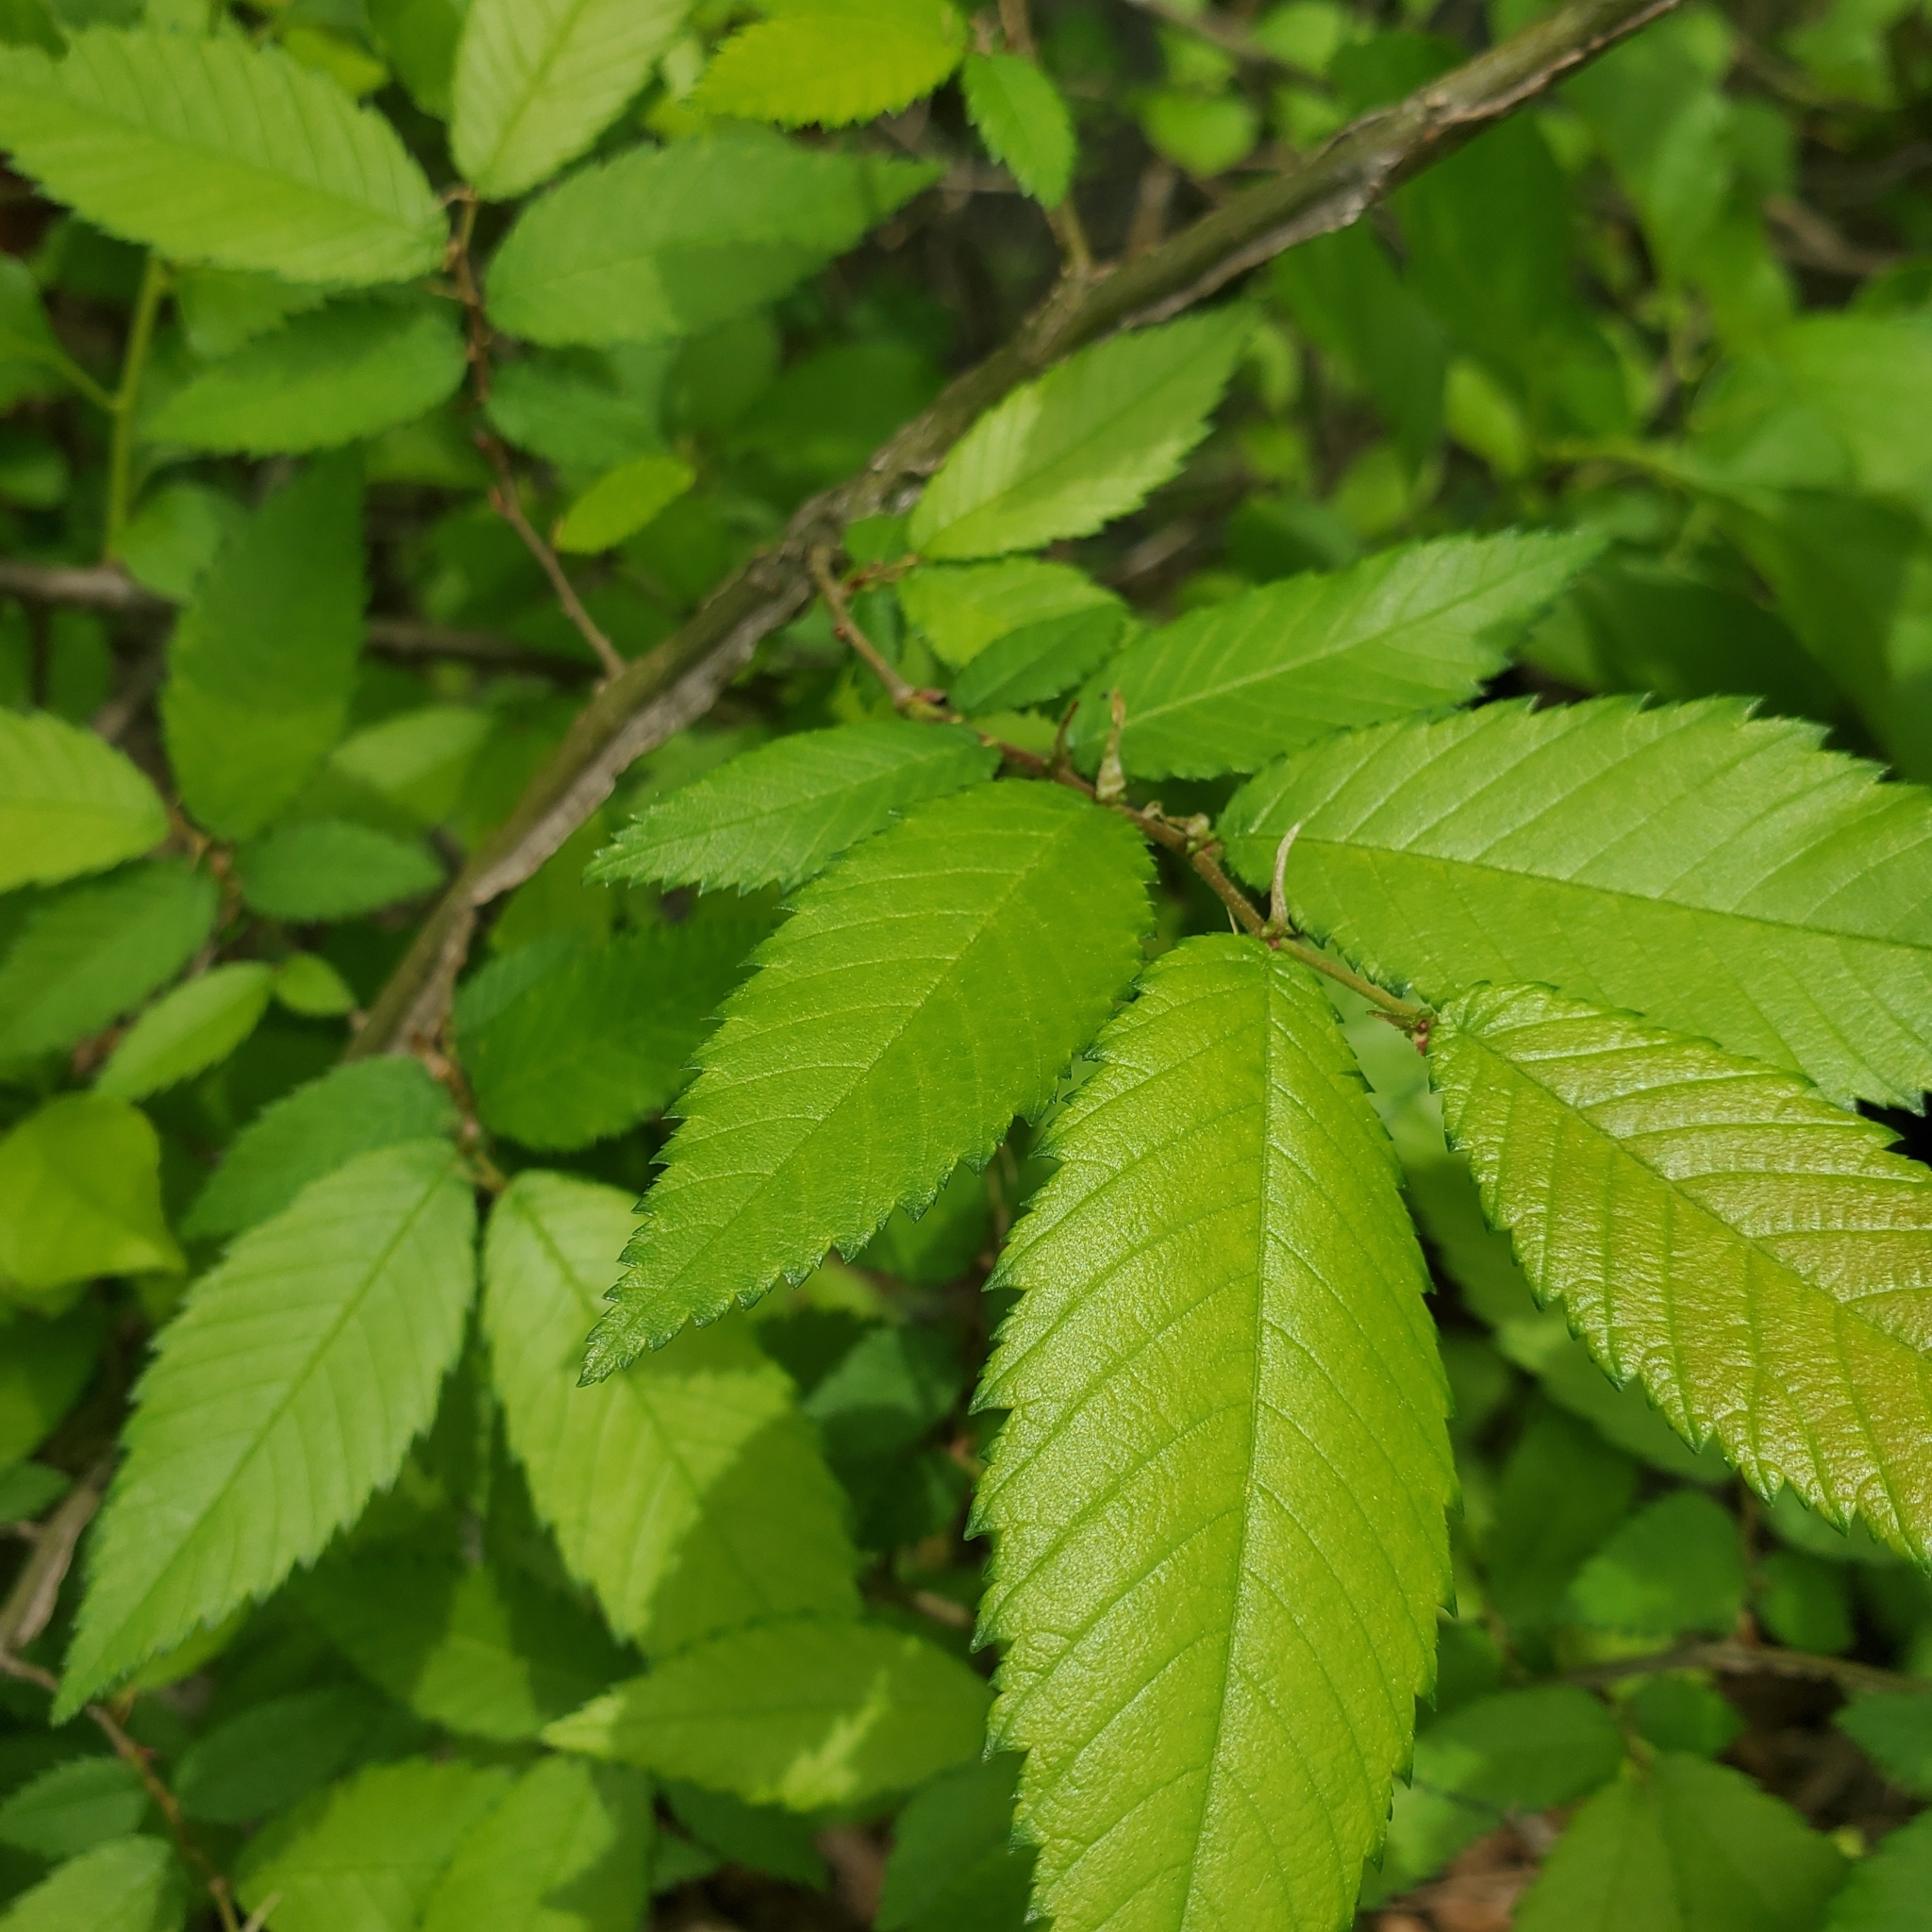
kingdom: Plantae
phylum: Tracheophyta
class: Magnoliopsida
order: Rosales
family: Ulmaceae
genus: Ulmus
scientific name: Ulmus alata
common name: Winged elm
